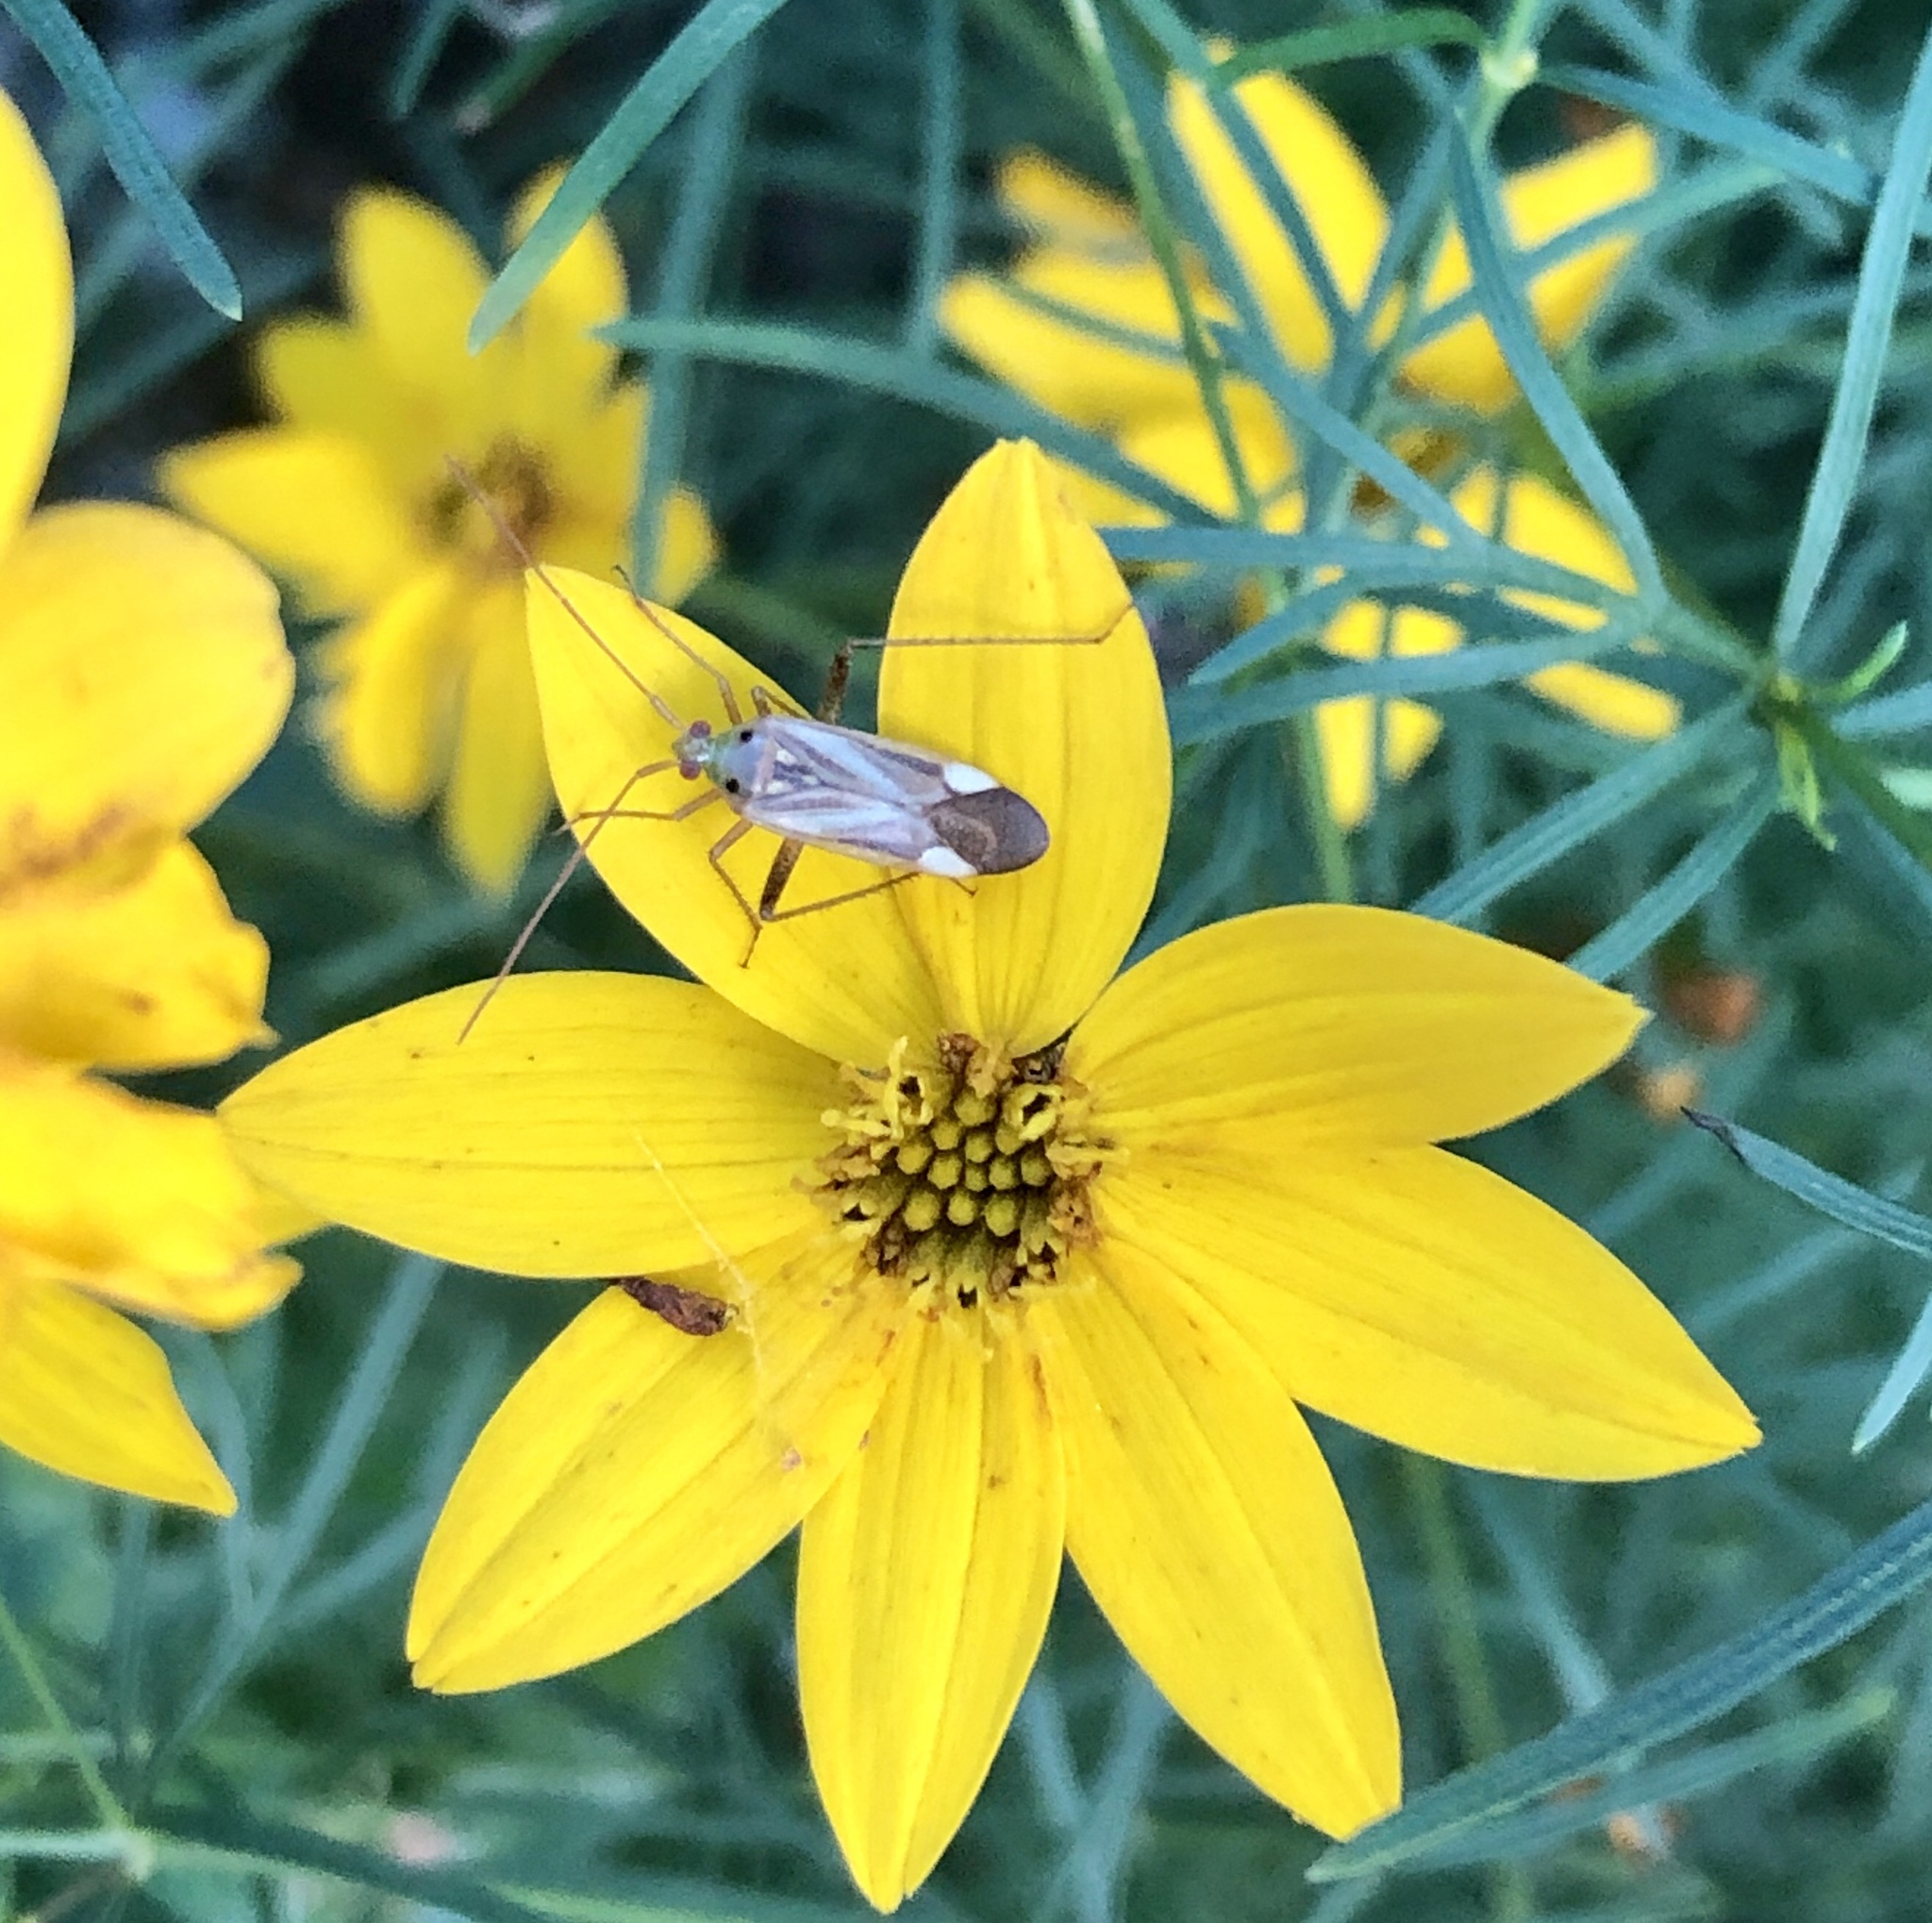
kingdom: Animalia
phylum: Arthropoda
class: Insecta
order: Hemiptera
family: Miridae
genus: Adelphocoris
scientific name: Adelphocoris lineolatus
